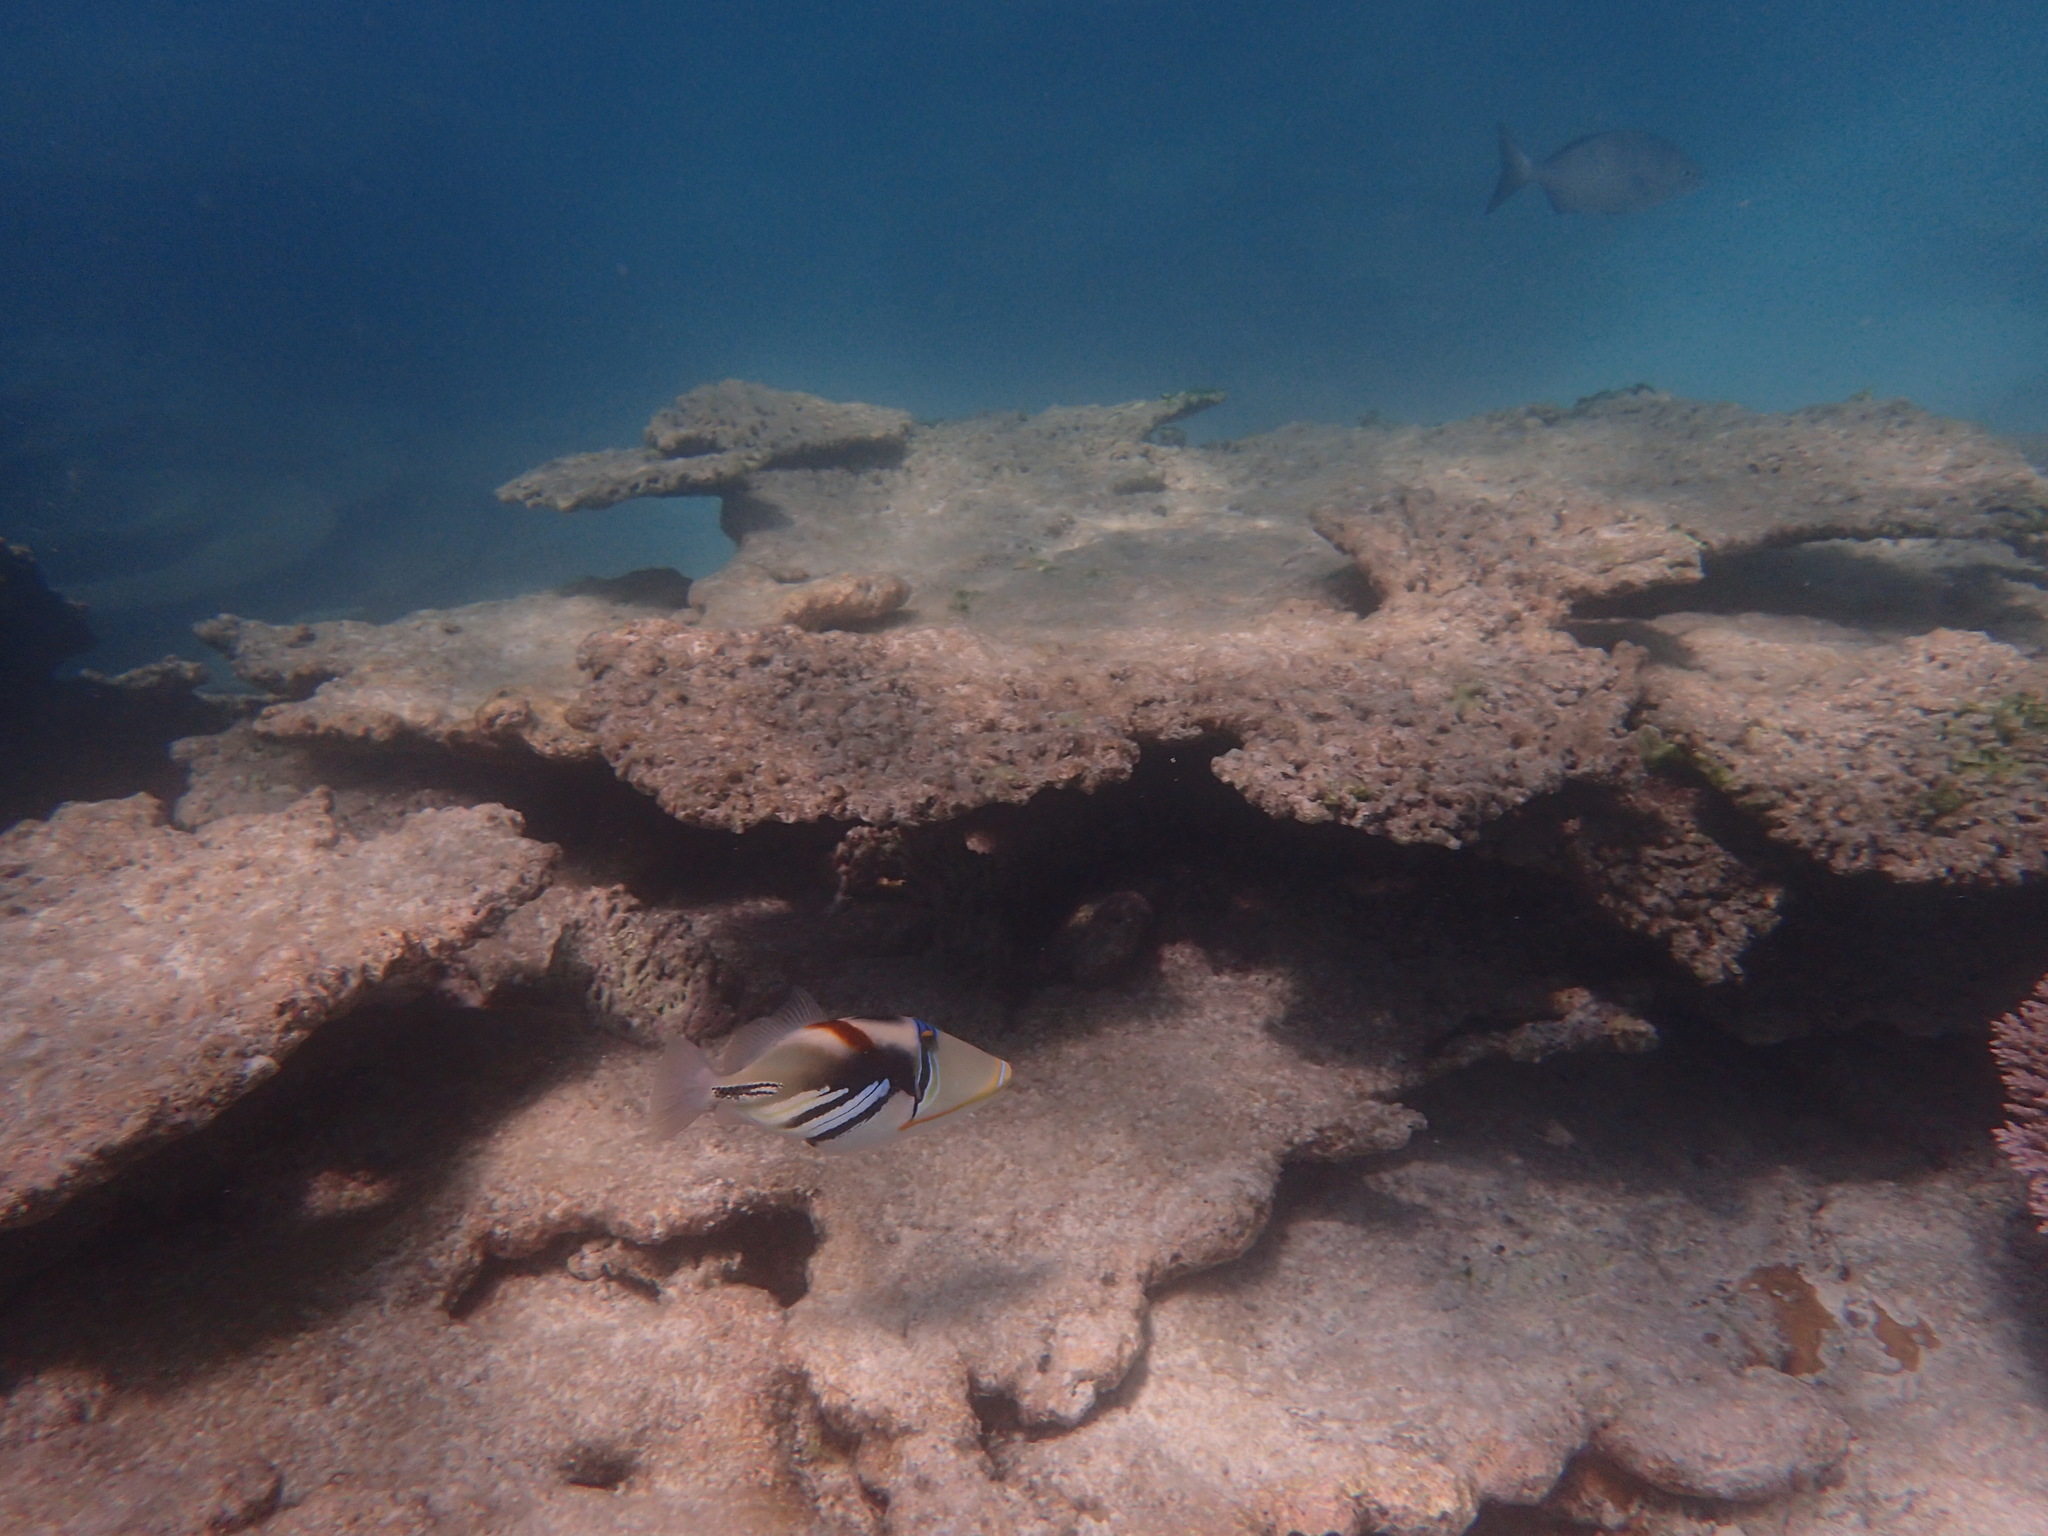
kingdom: Animalia
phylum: Chordata
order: Tetraodontiformes
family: Balistidae
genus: Rhinecanthus
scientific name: Rhinecanthus aculeatus
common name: White-banded triggerfish
